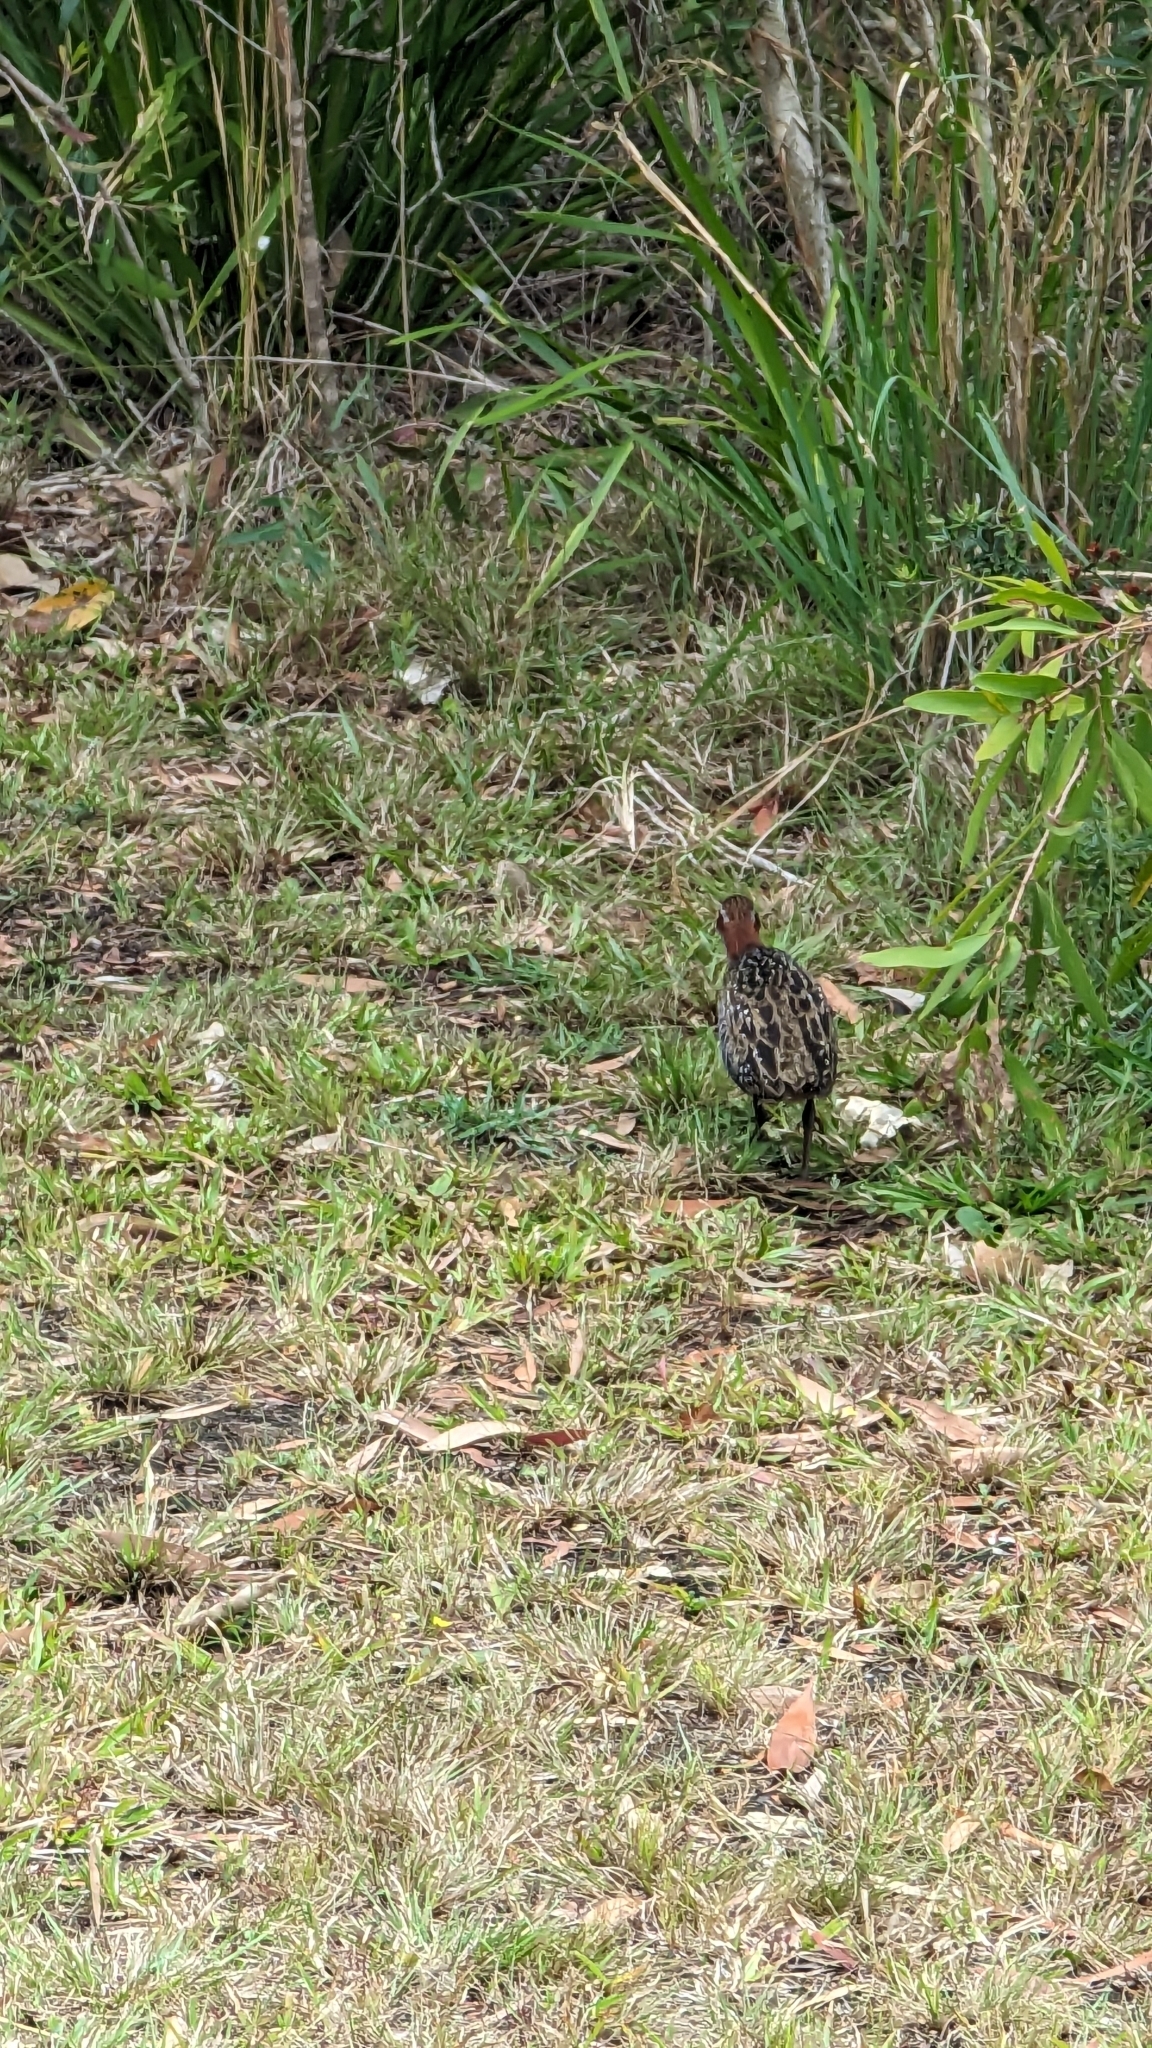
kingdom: Animalia
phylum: Chordata
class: Aves
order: Gruiformes
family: Rallidae
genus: Gallirallus
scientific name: Gallirallus philippensis
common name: Buff-banded rail
